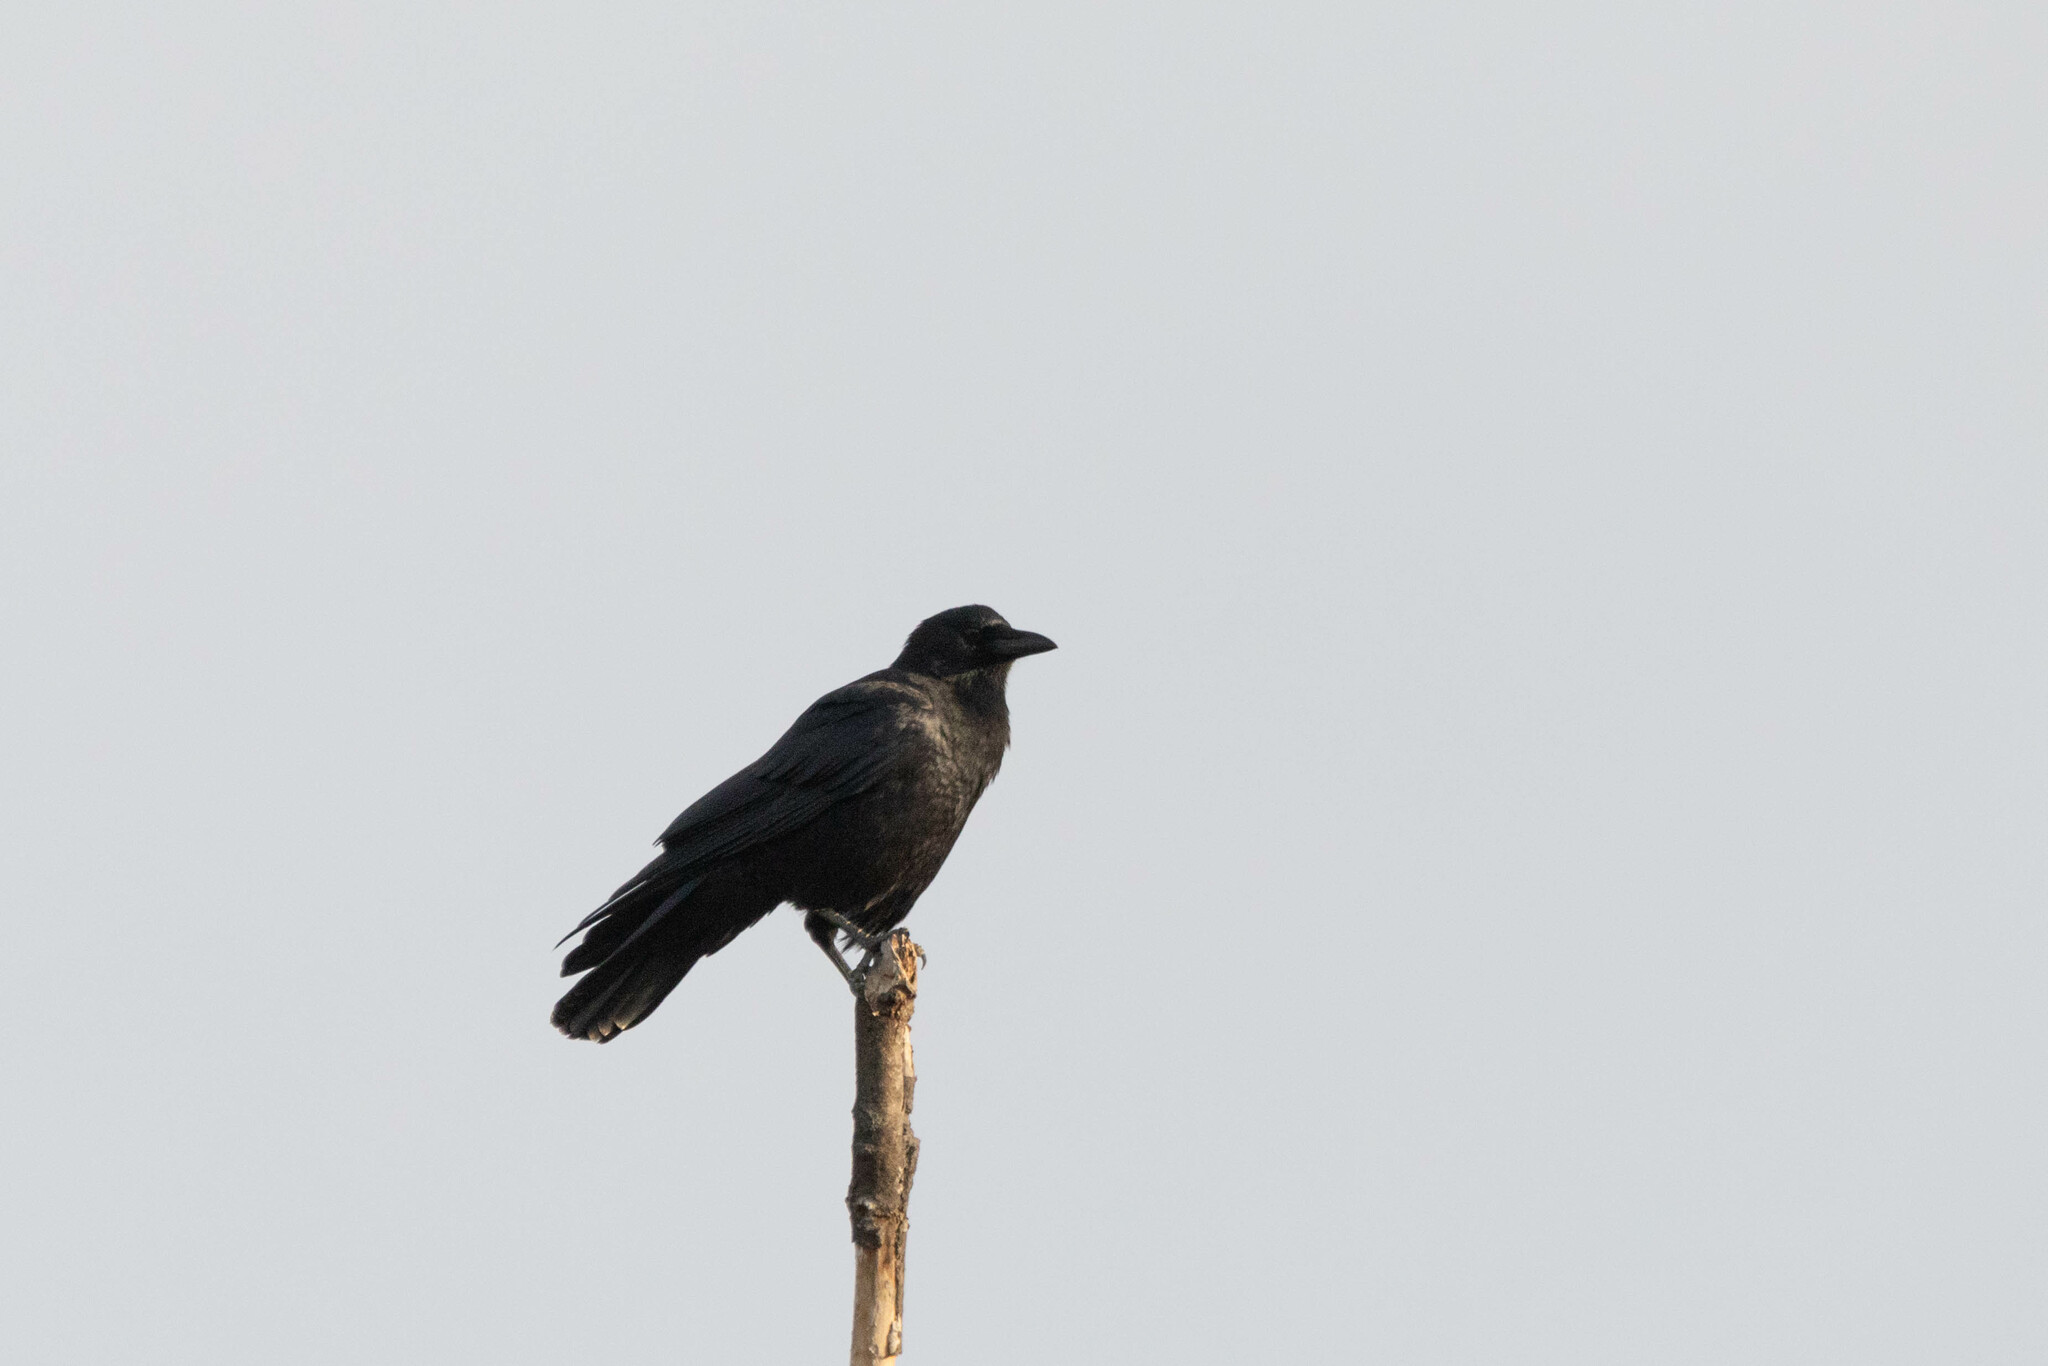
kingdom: Animalia
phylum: Chordata
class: Aves
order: Passeriformes
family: Corvidae
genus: Corvus
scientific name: Corvus brachyrhynchos
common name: American crow
